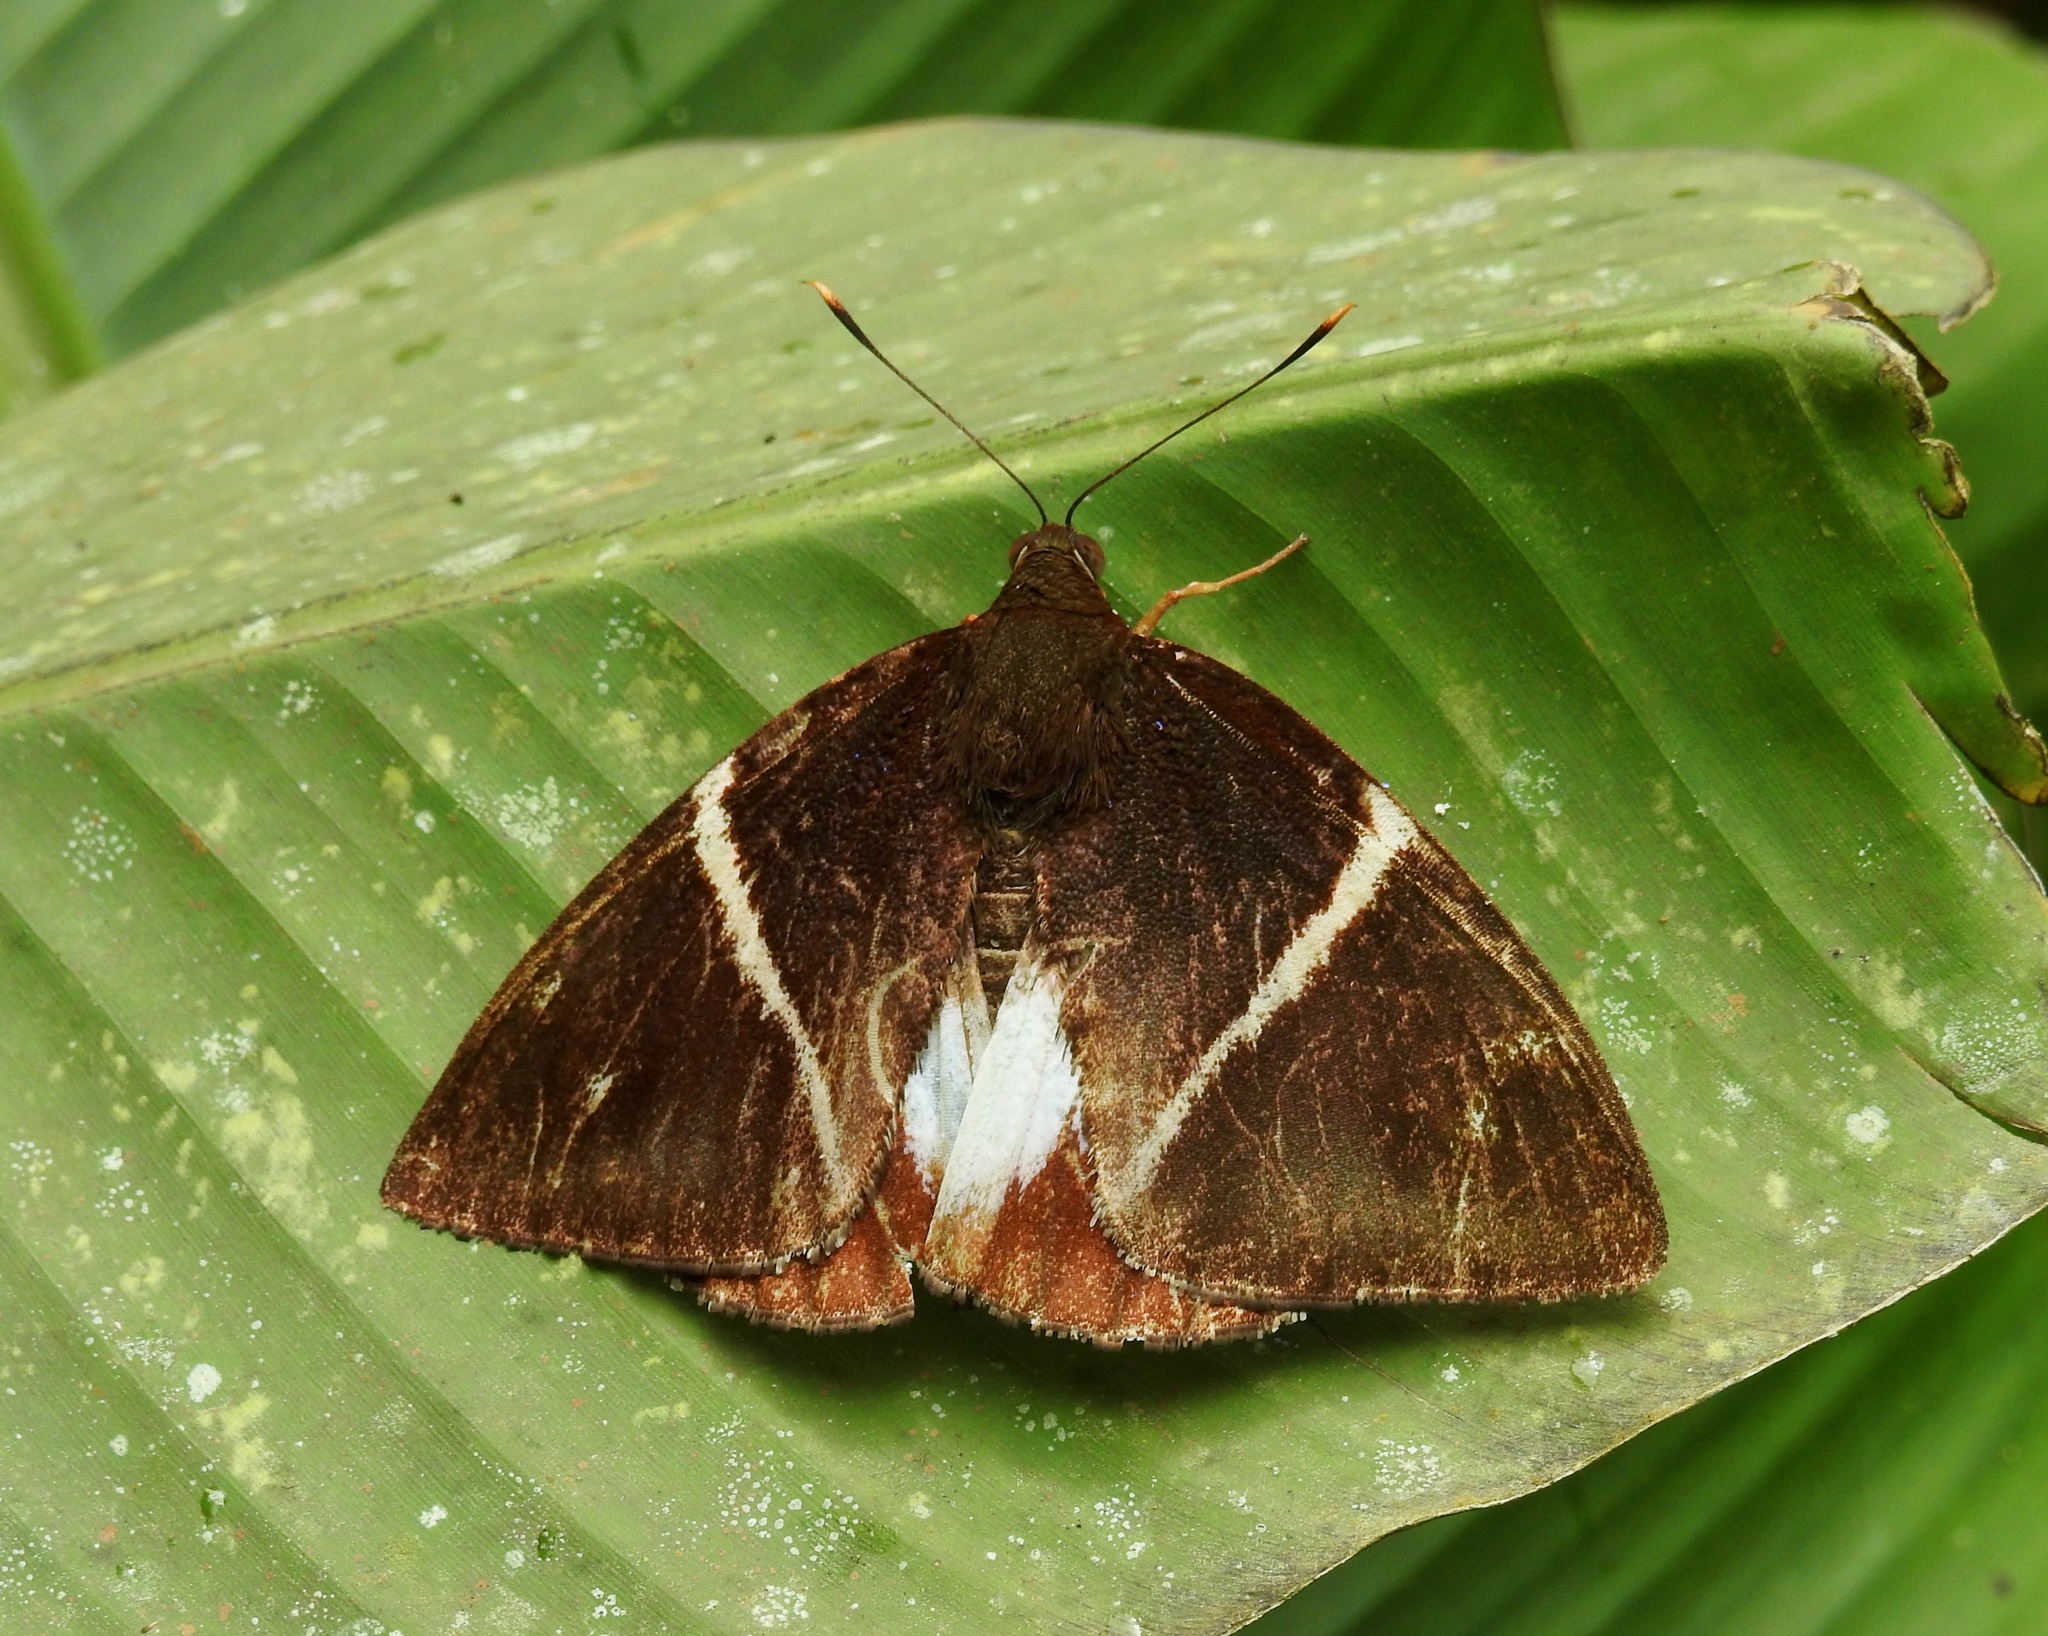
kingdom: Animalia
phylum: Arthropoda
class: Insecta
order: Lepidoptera
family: Castniidae
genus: Castniomera
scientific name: Castniomera atymnius
